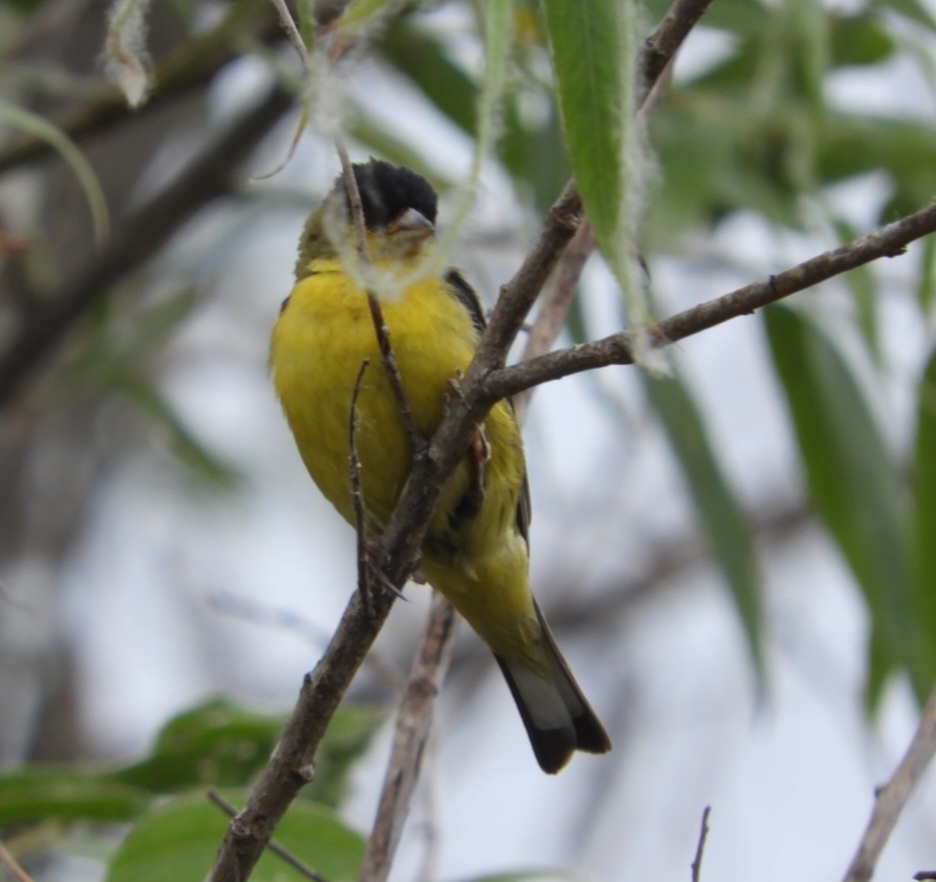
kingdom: Animalia
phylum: Chordata
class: Aves
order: Passeriformes
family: Fringillidae
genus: Spinus
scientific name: Spinus psaltria
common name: Lesser goldfinch
